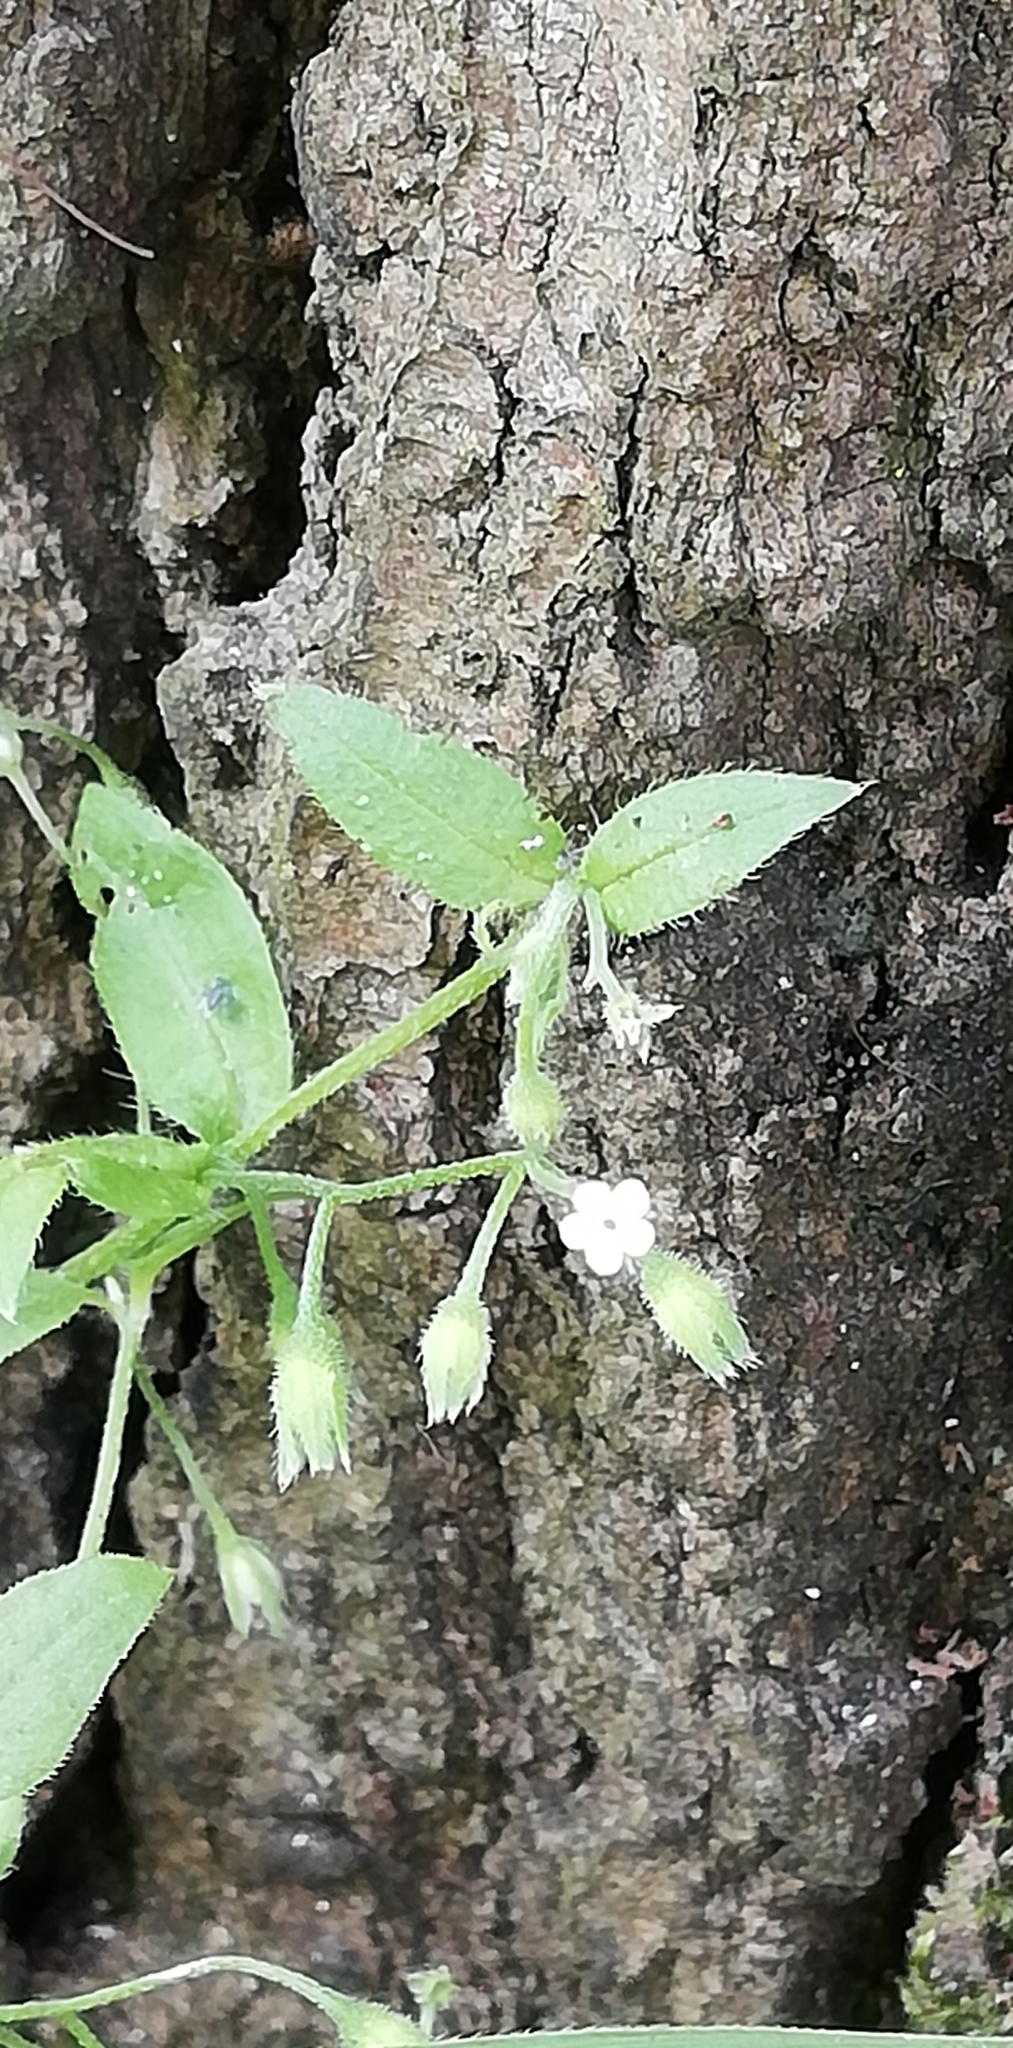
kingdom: Plantae
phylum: Tracheophyta
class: Magnoliopsida
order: Boraginales
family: Boraginaceae
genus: Myosotis
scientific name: Myosotis sparsiflora
